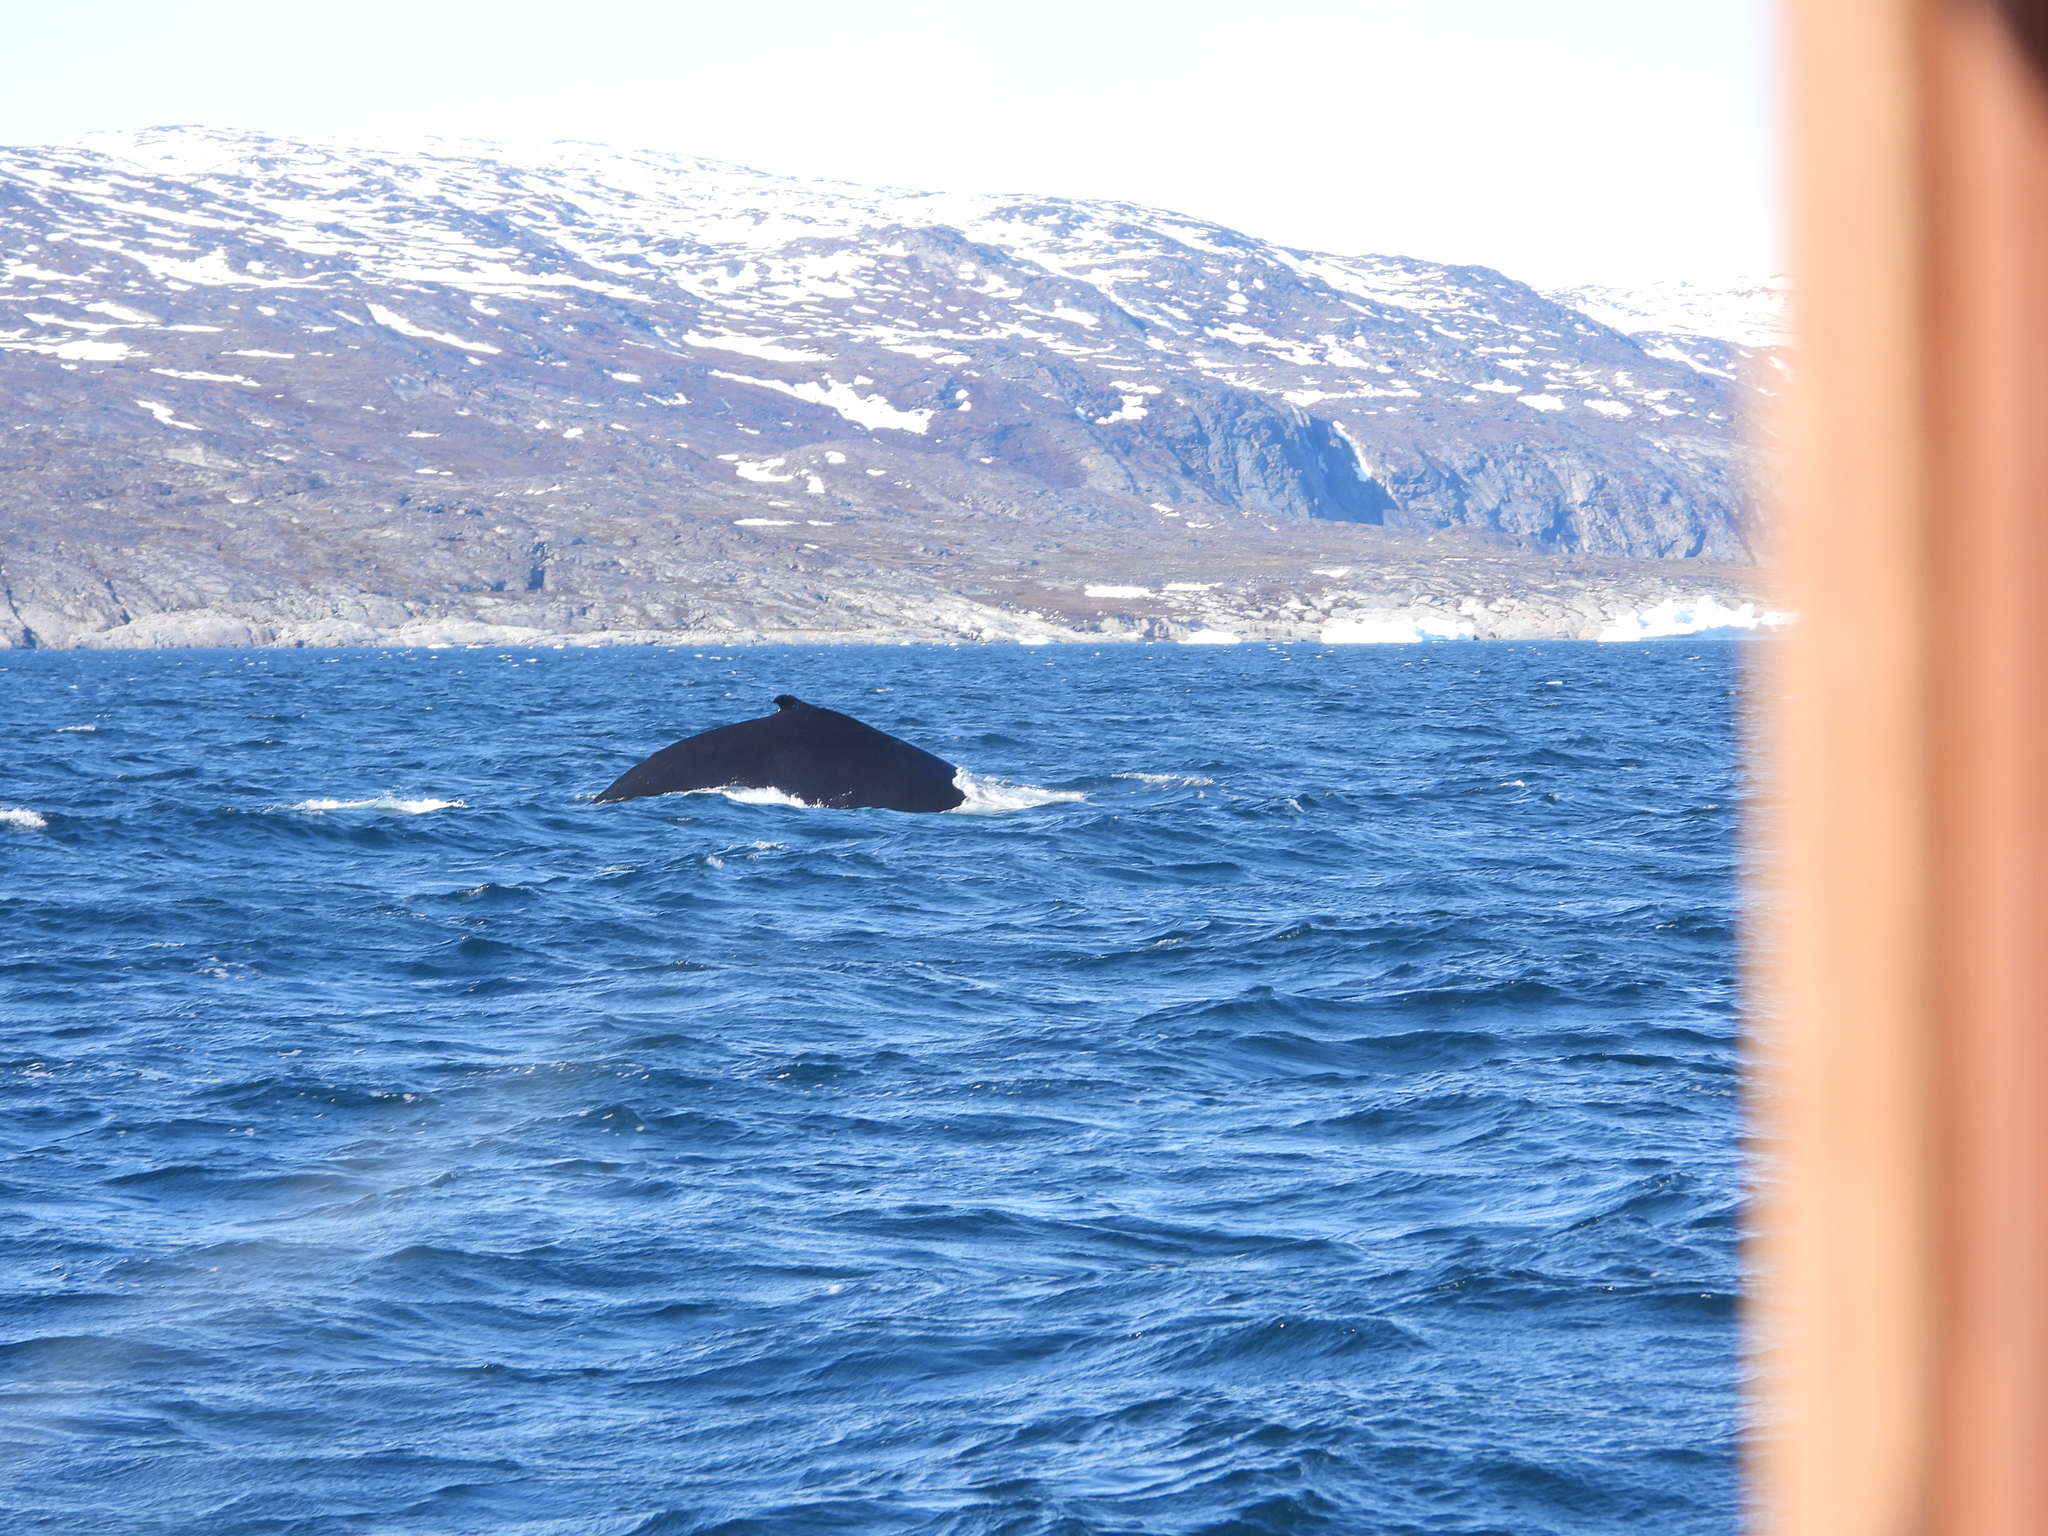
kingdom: Animalia
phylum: Chordata
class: Mammalia
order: Cetacea
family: Balaenopteridae
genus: Megaptera
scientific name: Megaptera novaeangliae
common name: Humpback whale
